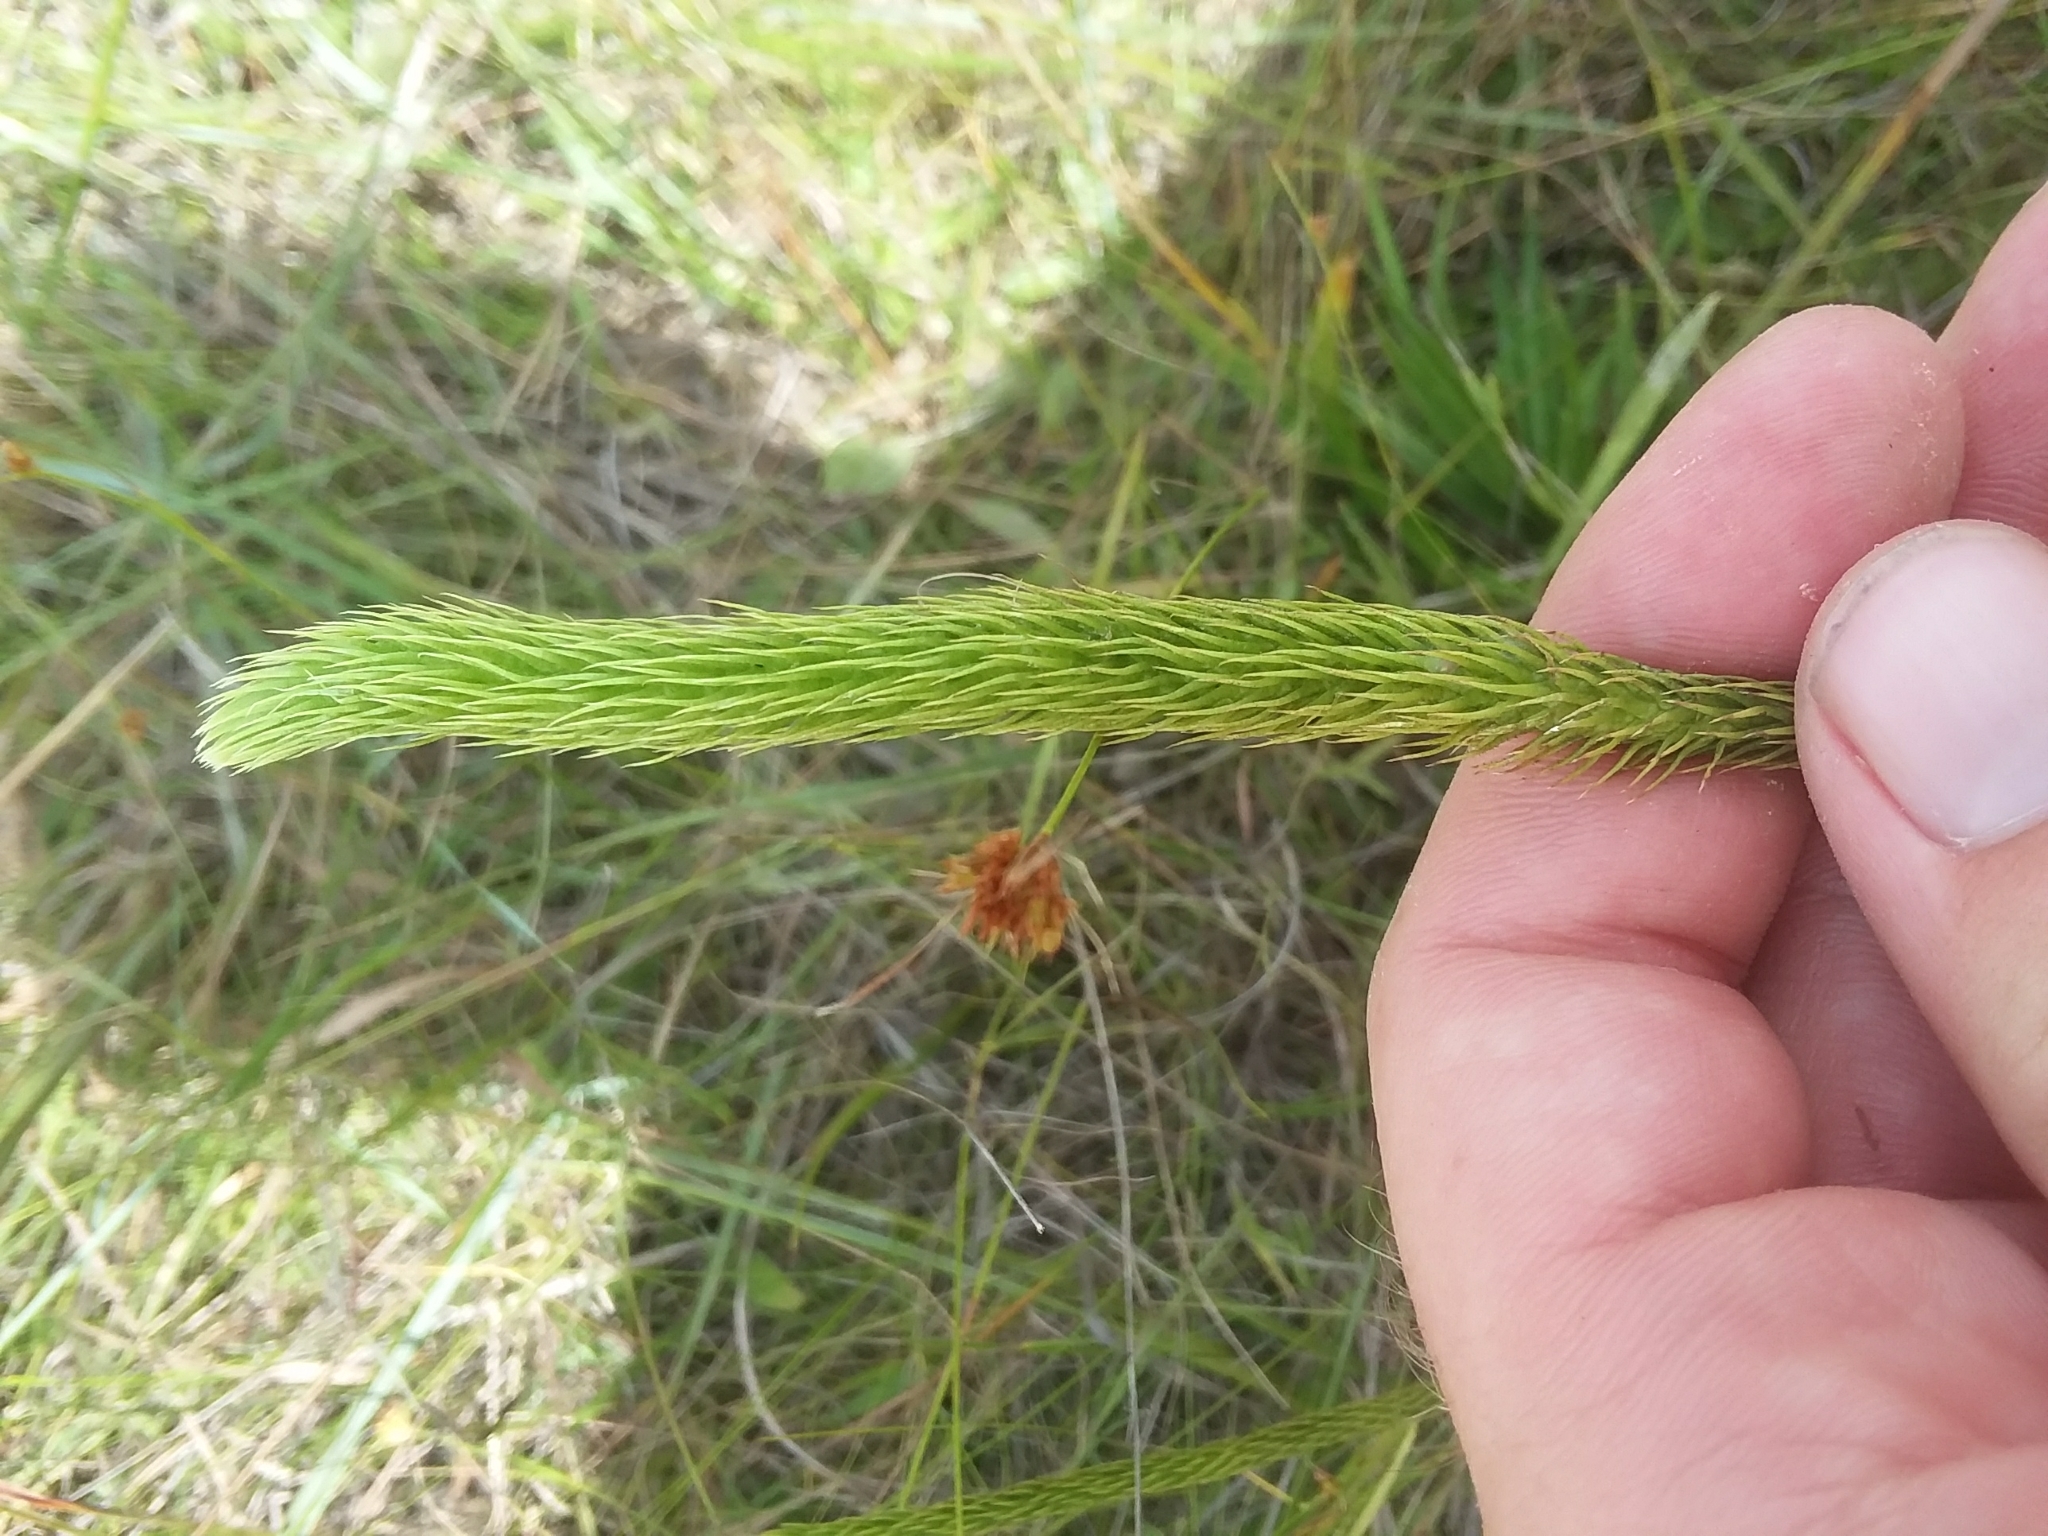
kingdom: Plantae
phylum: Tracheophyta
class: Lycopodiopsida
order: Lycopodiales
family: Lycopodiaceae
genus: Lycopodiella
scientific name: Lycopodiella appressa
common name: Appressed bog clubmoss
